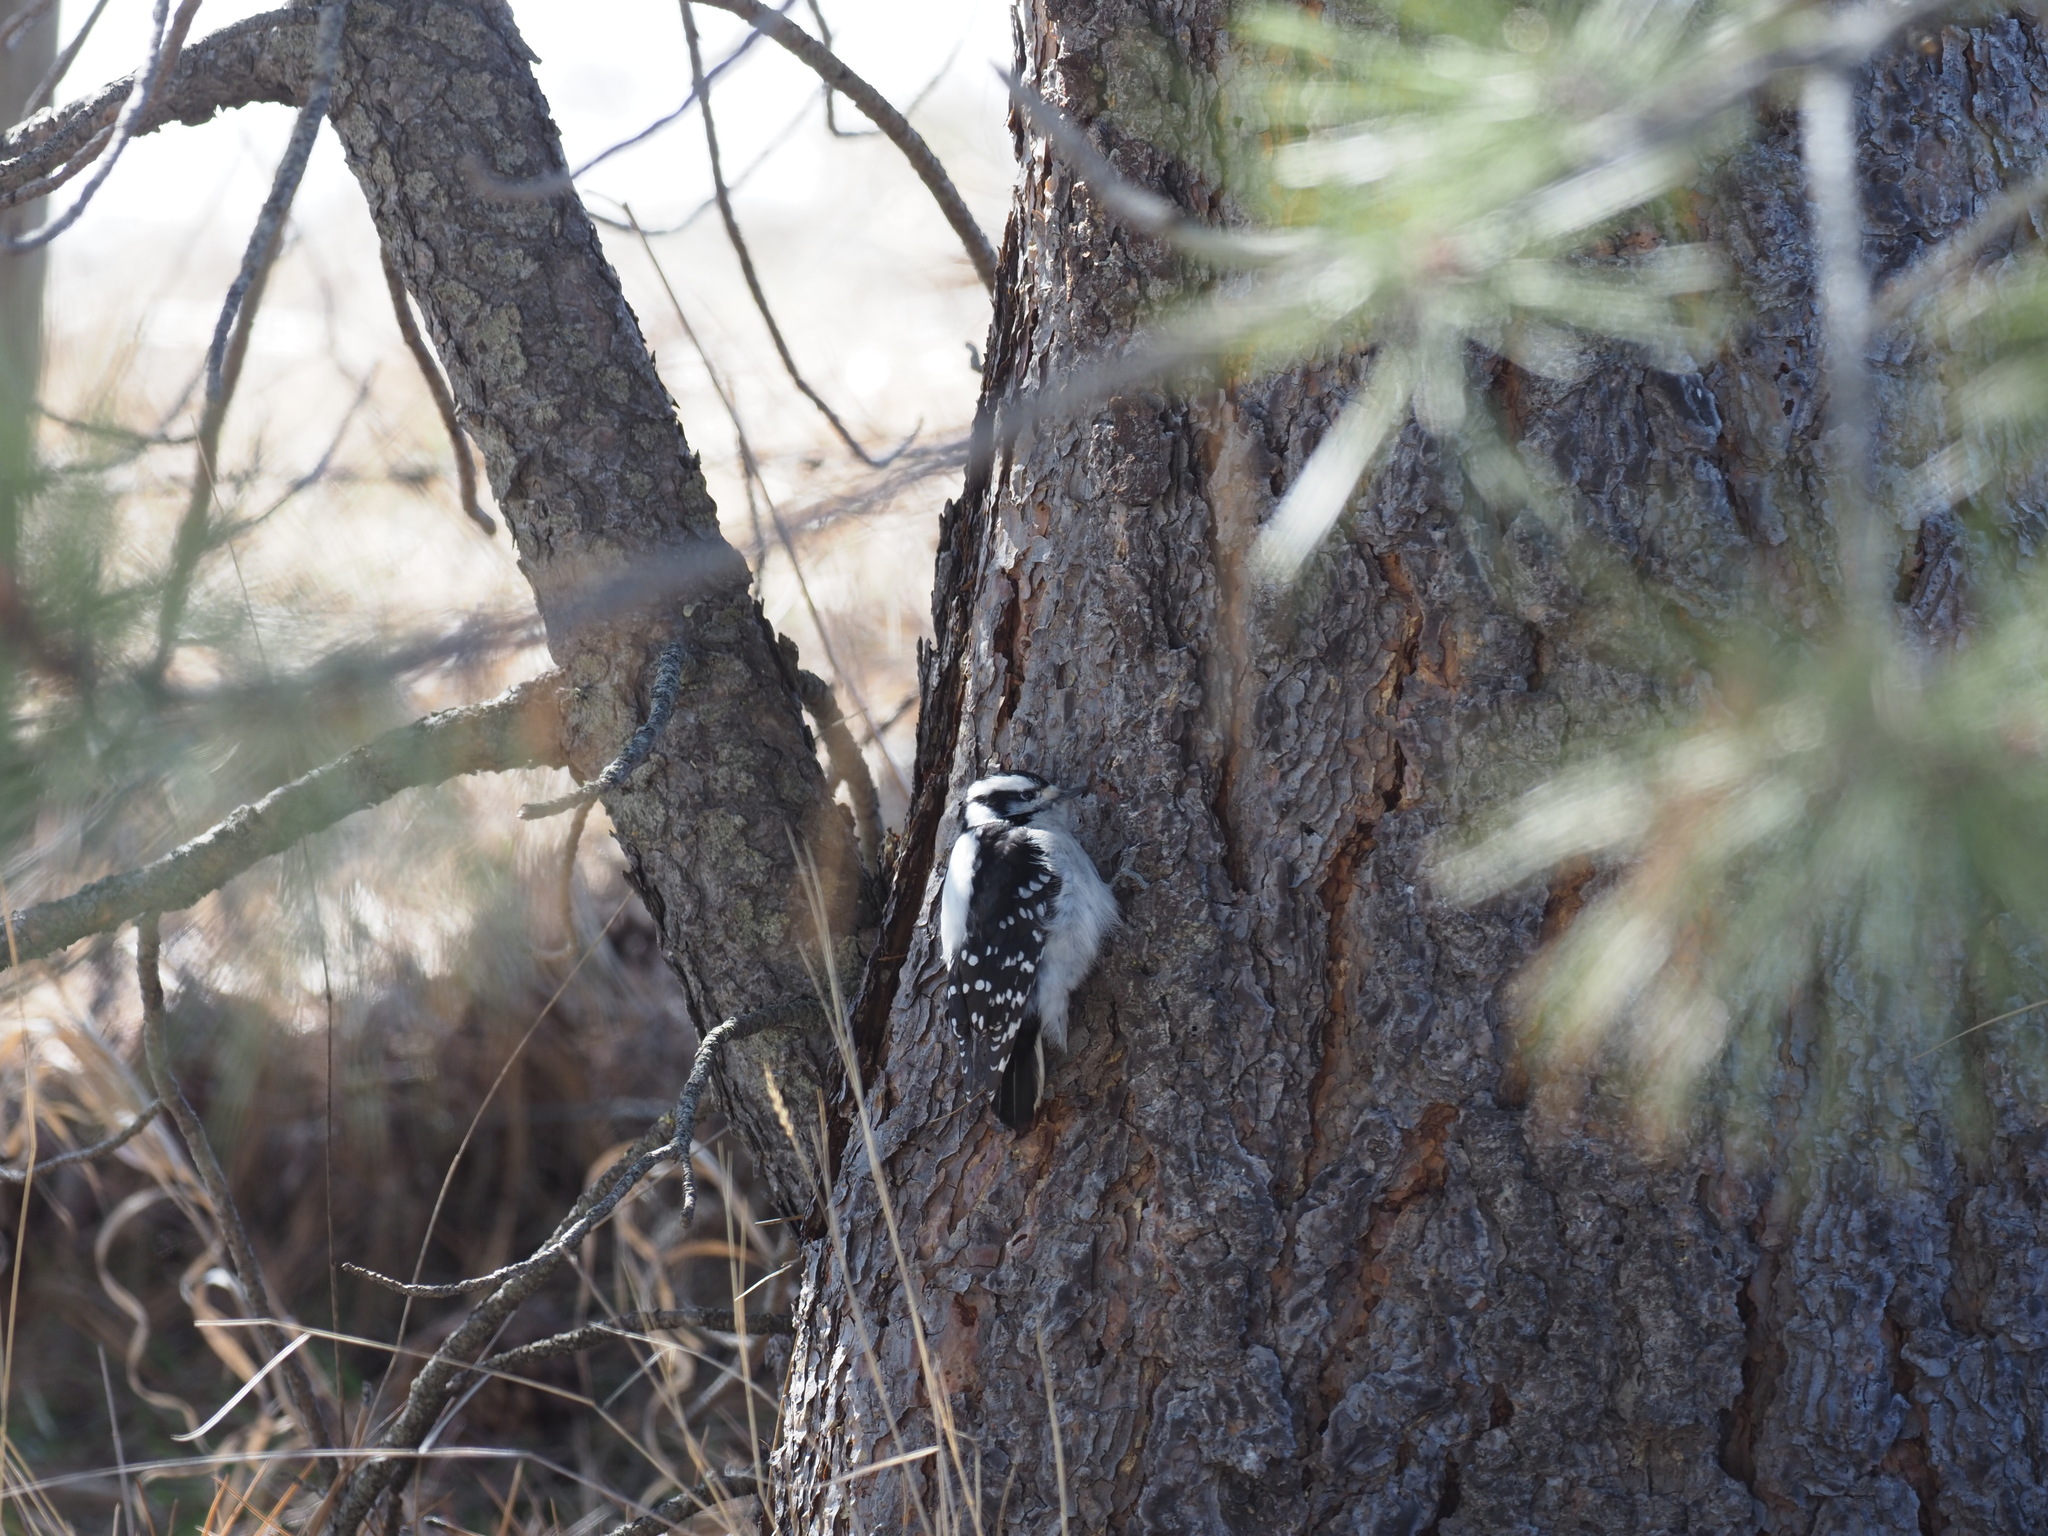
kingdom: Animalia
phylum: Chordata
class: Aves
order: Piciformes
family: Picidae
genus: Dryobates
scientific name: Dryobates pubescens
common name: Downy woodpecker
